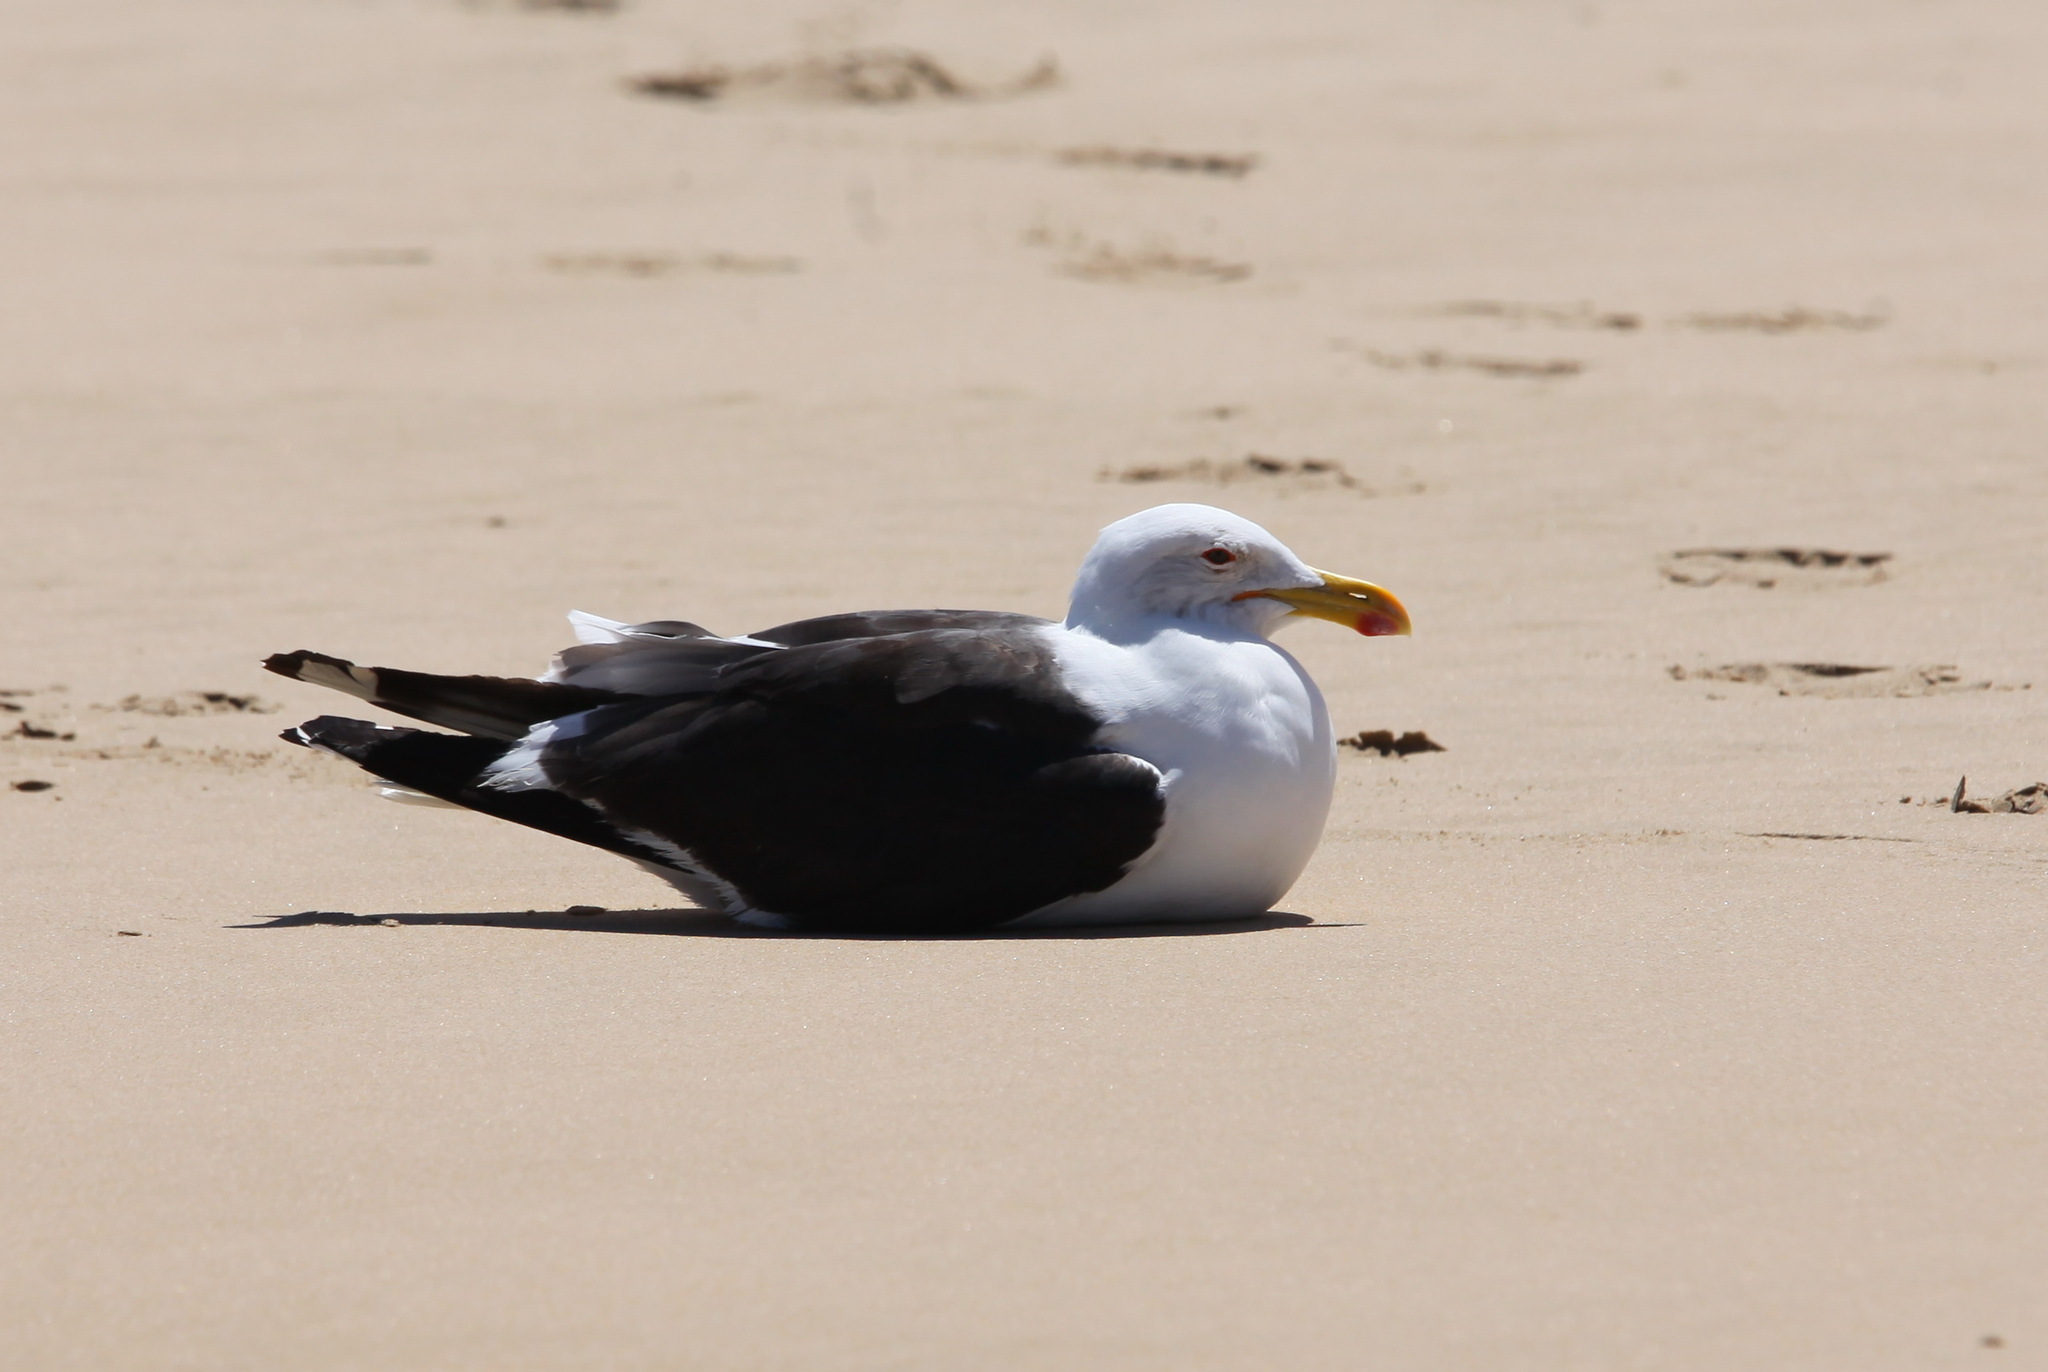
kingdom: Animalia
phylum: Chordata
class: Aves
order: Charadriiformes
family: Laridae
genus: Larus
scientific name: Larus dominicanus
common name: Kelp gull
